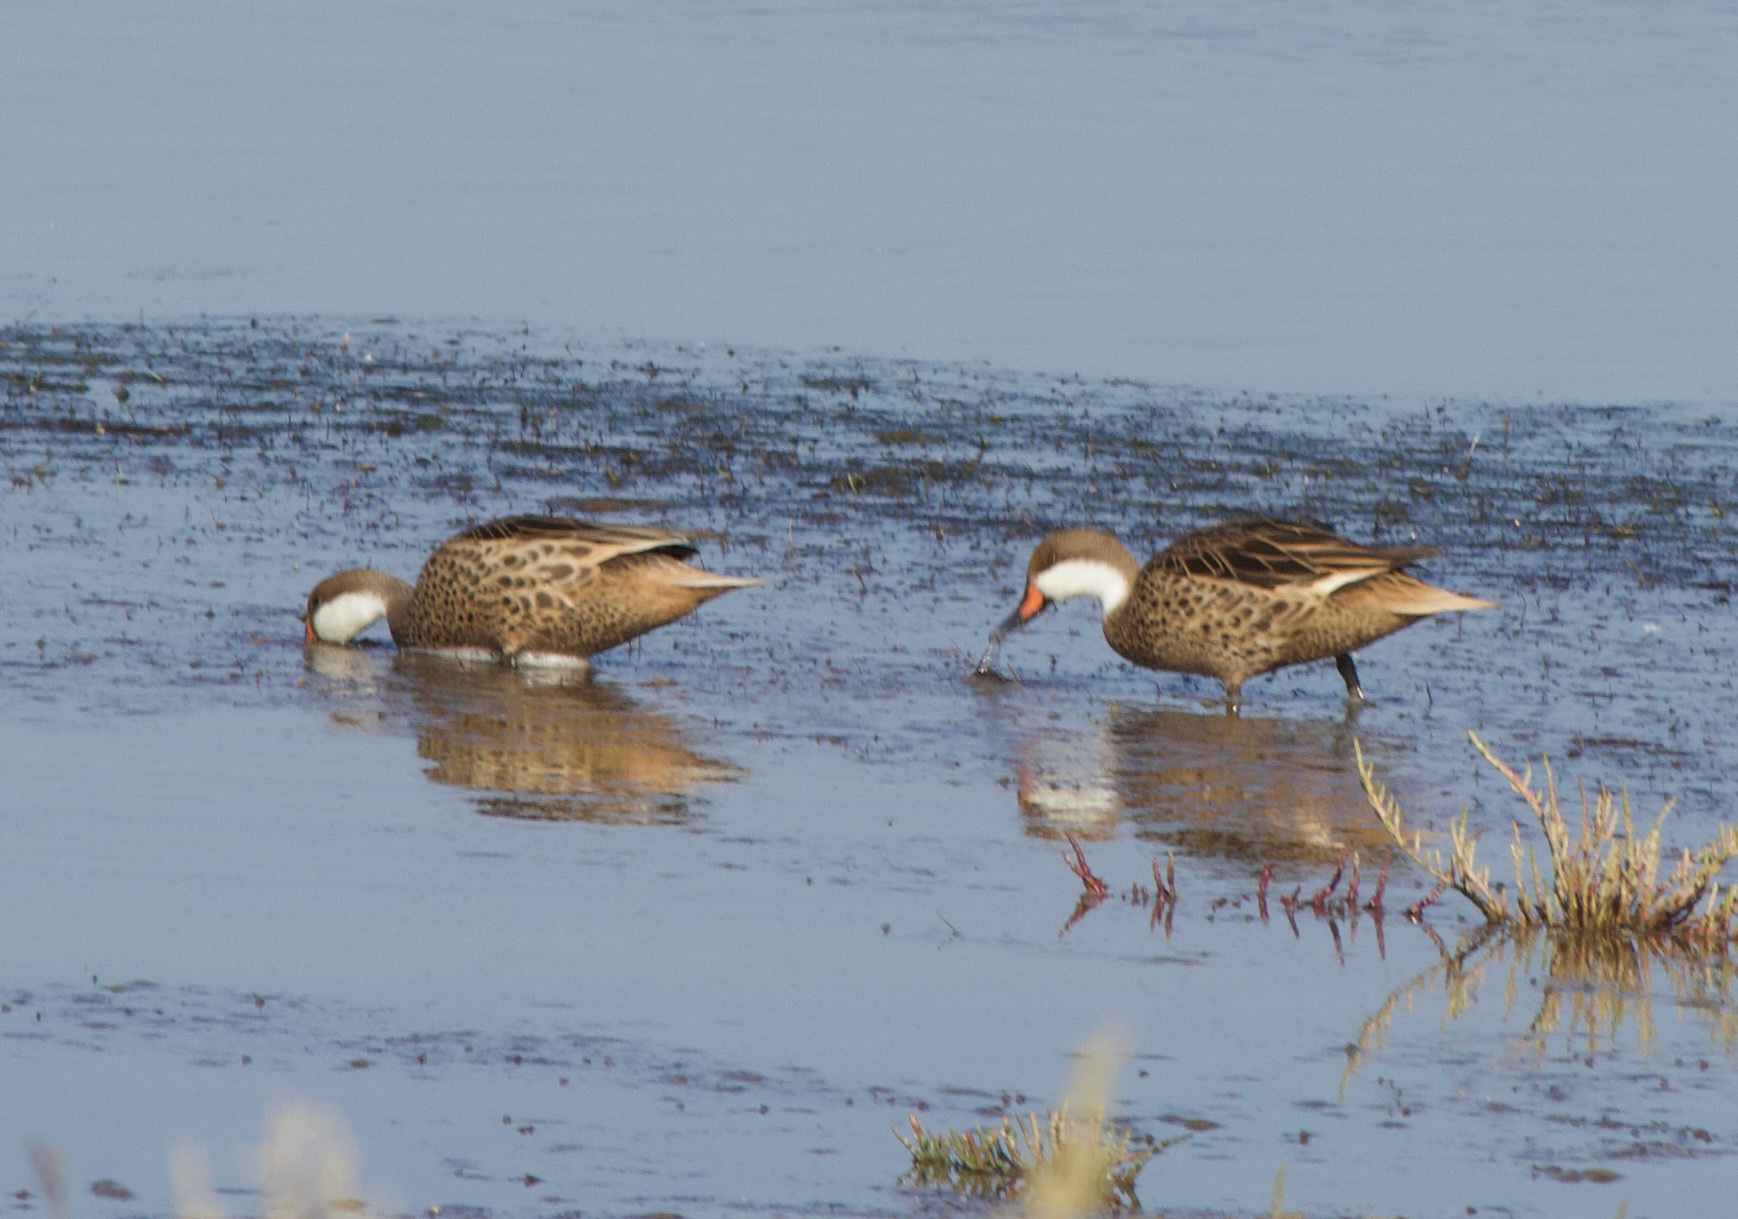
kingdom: Animalia
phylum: Chordata
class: Aves
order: Anseriformes
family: Anatidae
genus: Anas
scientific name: Anas bahamensis
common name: White-cheeked pintail
